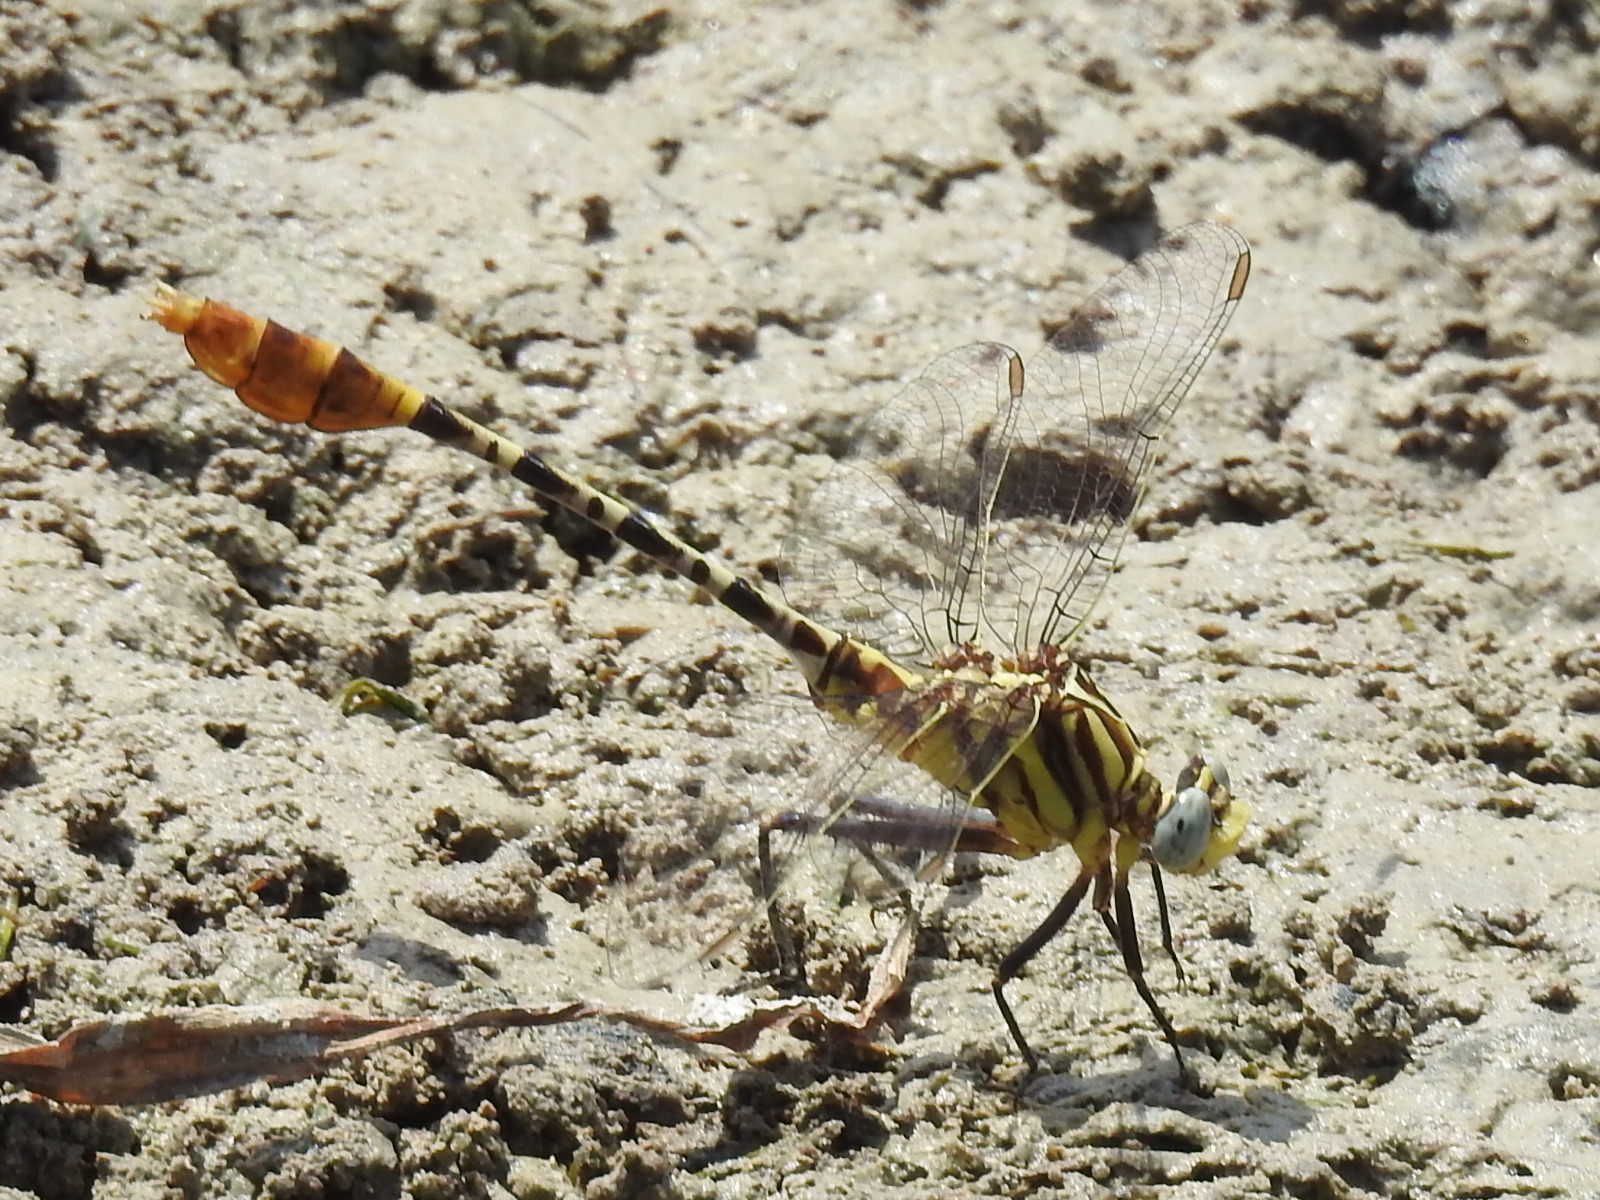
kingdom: Animalia
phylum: Arthropoda
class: Insecta
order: Odonata
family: Gomphidae
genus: Dromogomphus
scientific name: Dromogomphus spoliatus
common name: Flag-tailed spinyleg
